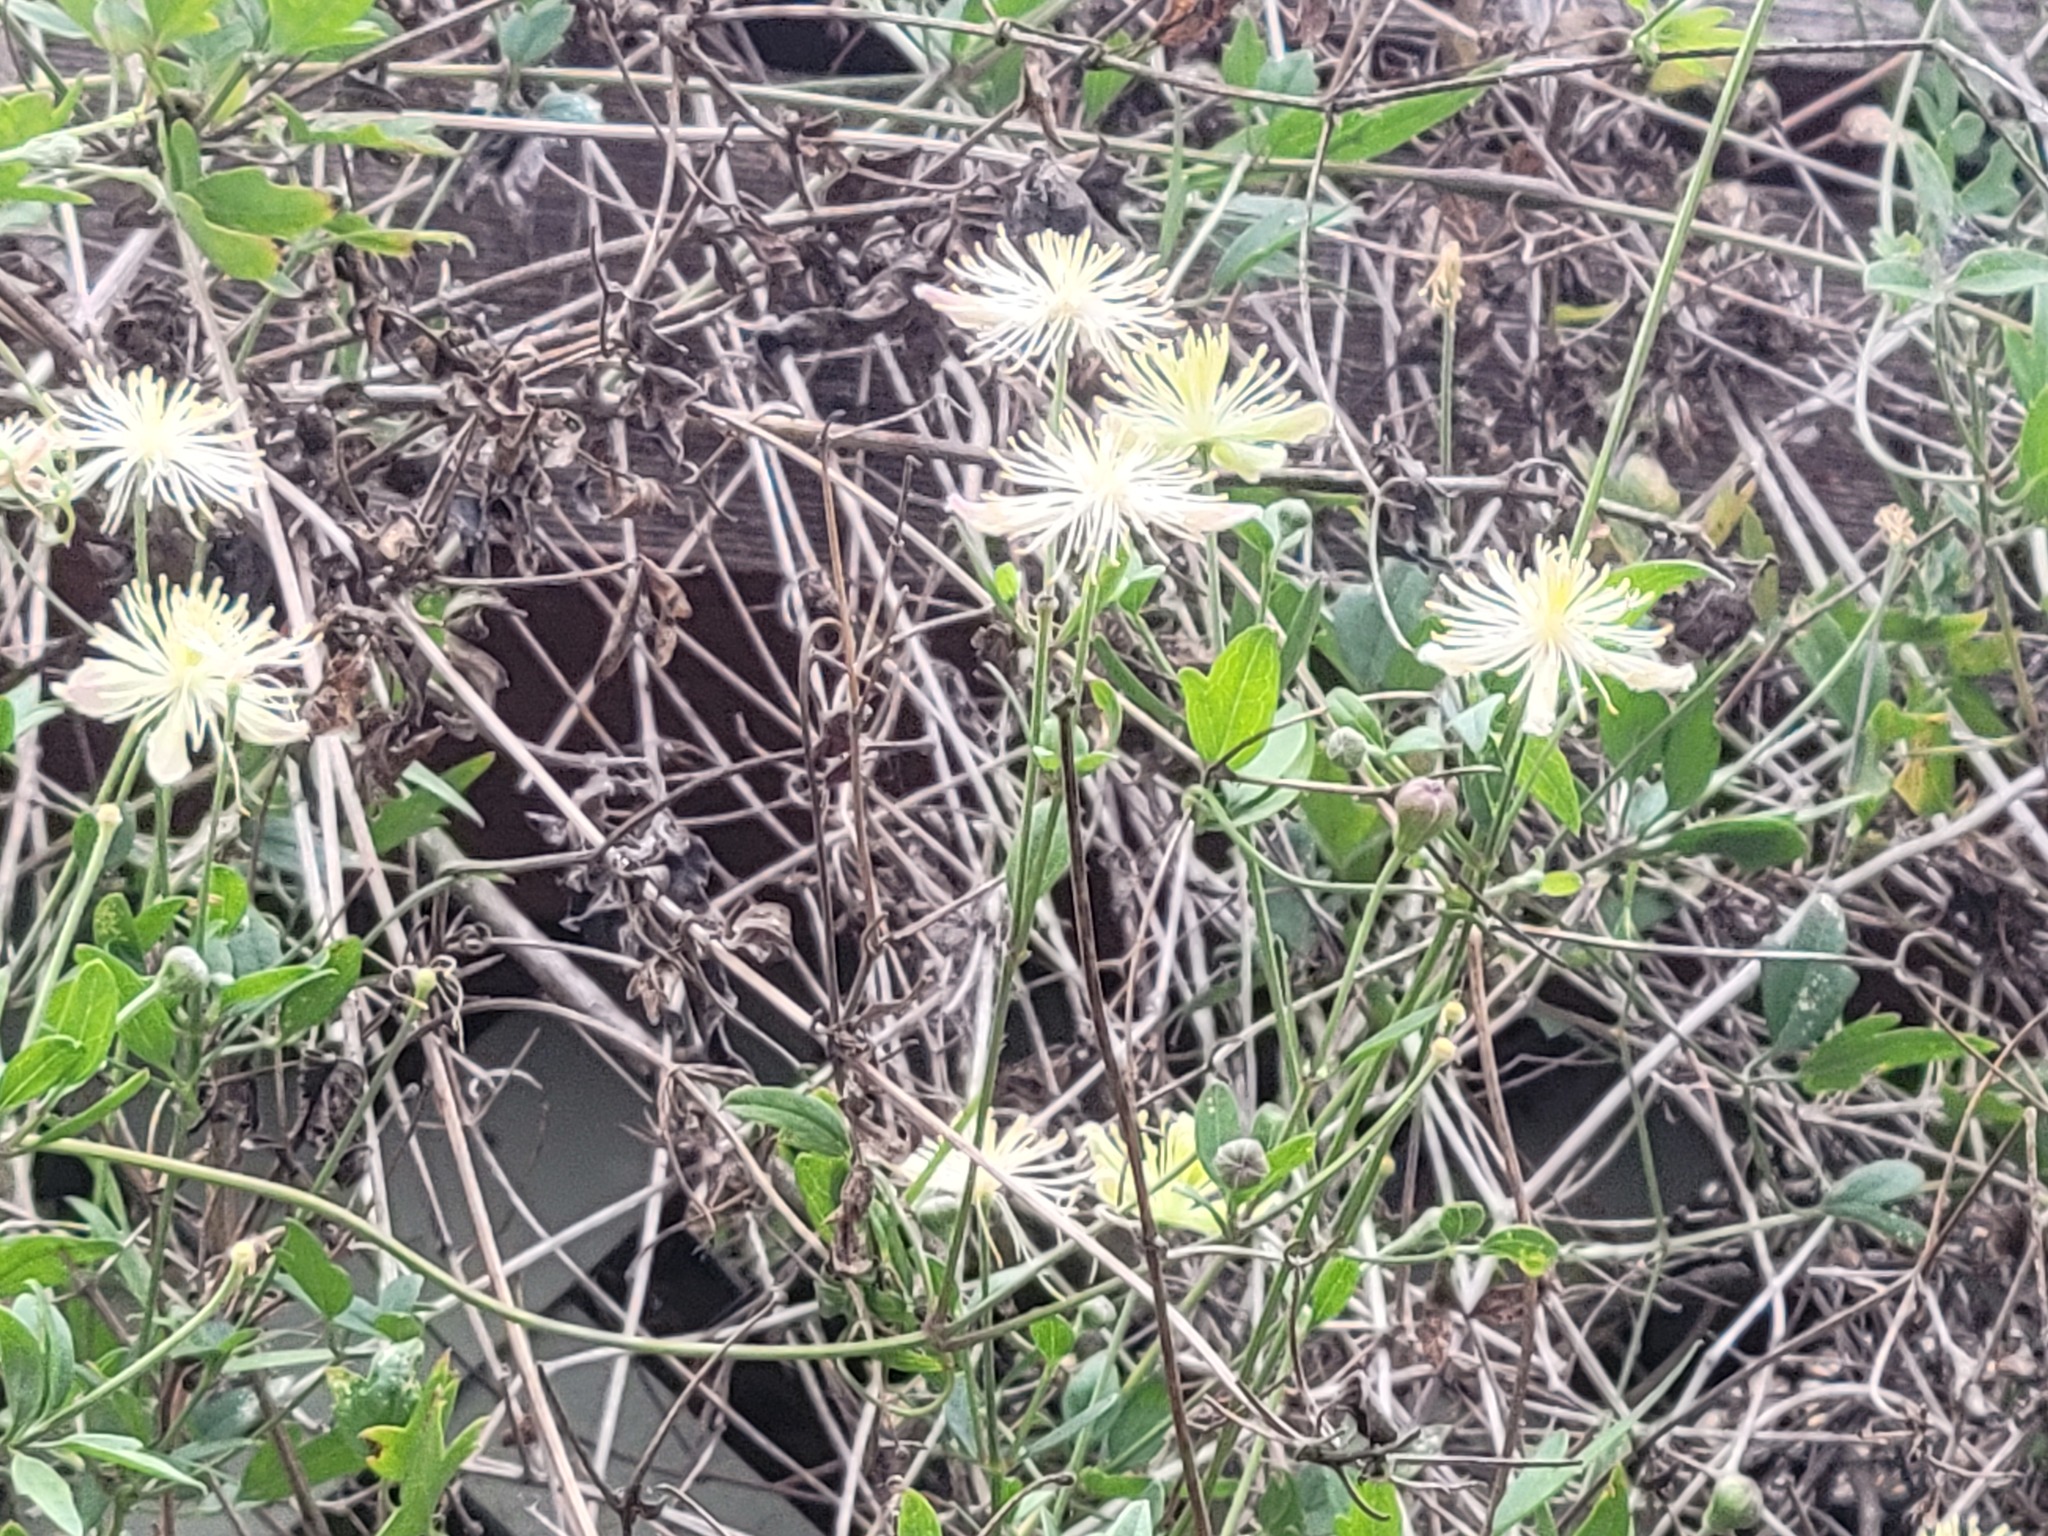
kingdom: Plantae
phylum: Tracheophyta
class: Magnoliopsida
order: Ranunculales
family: Ranunculaceae
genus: Clematis
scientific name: Clematis drummondii
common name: Texas virgin's bower
